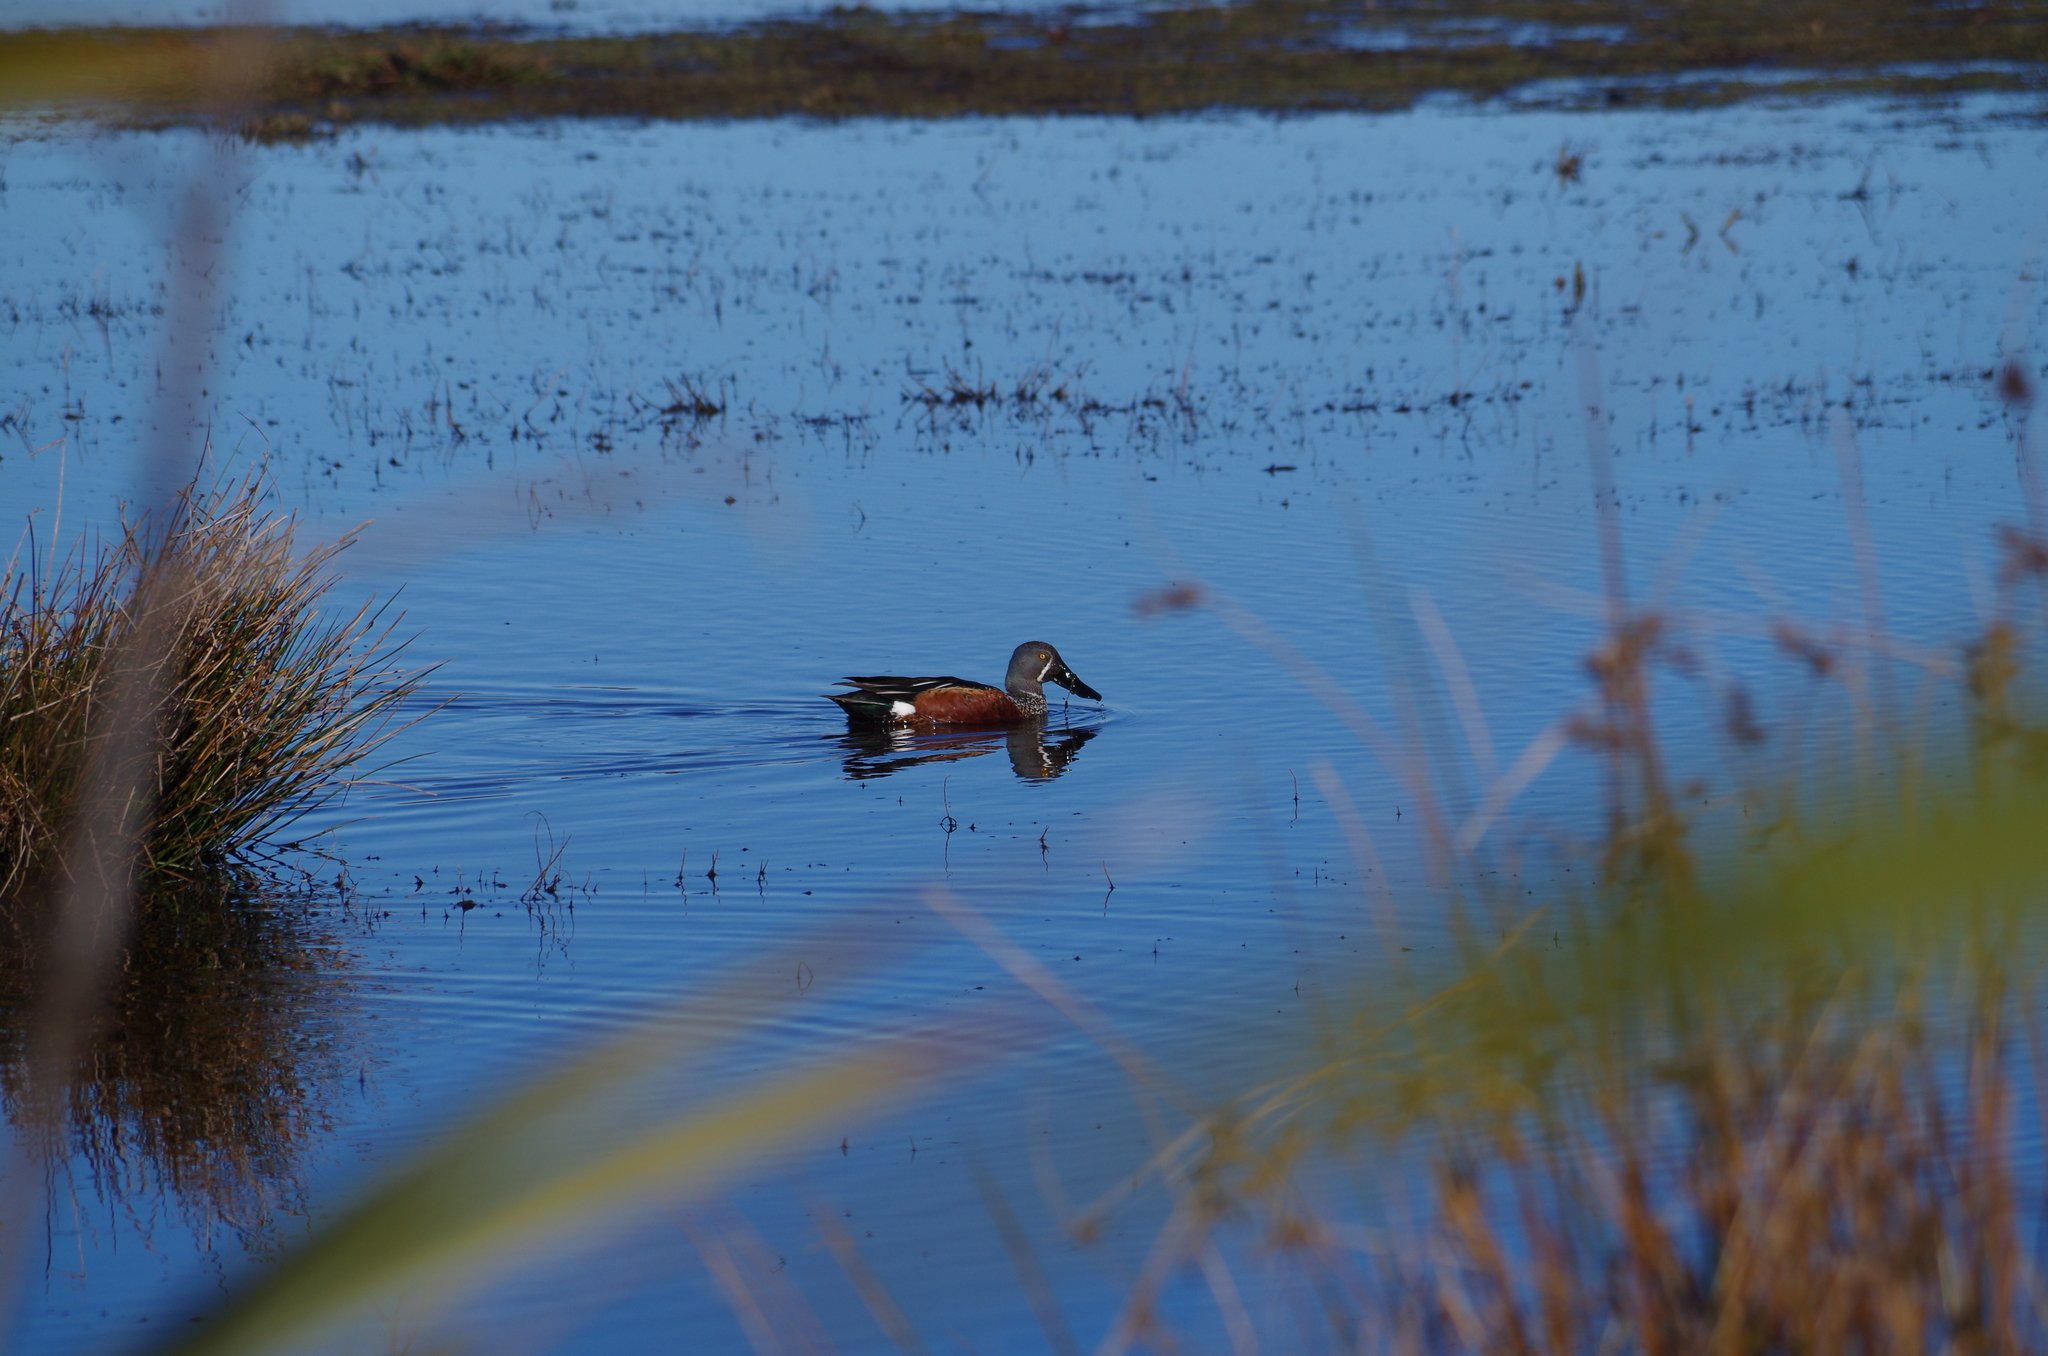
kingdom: Animalia
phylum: Chordata
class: Aves
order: Anseriformes
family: Anatidae
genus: Spatula
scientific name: Spatula rhynchotis
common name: Australian shoveler
